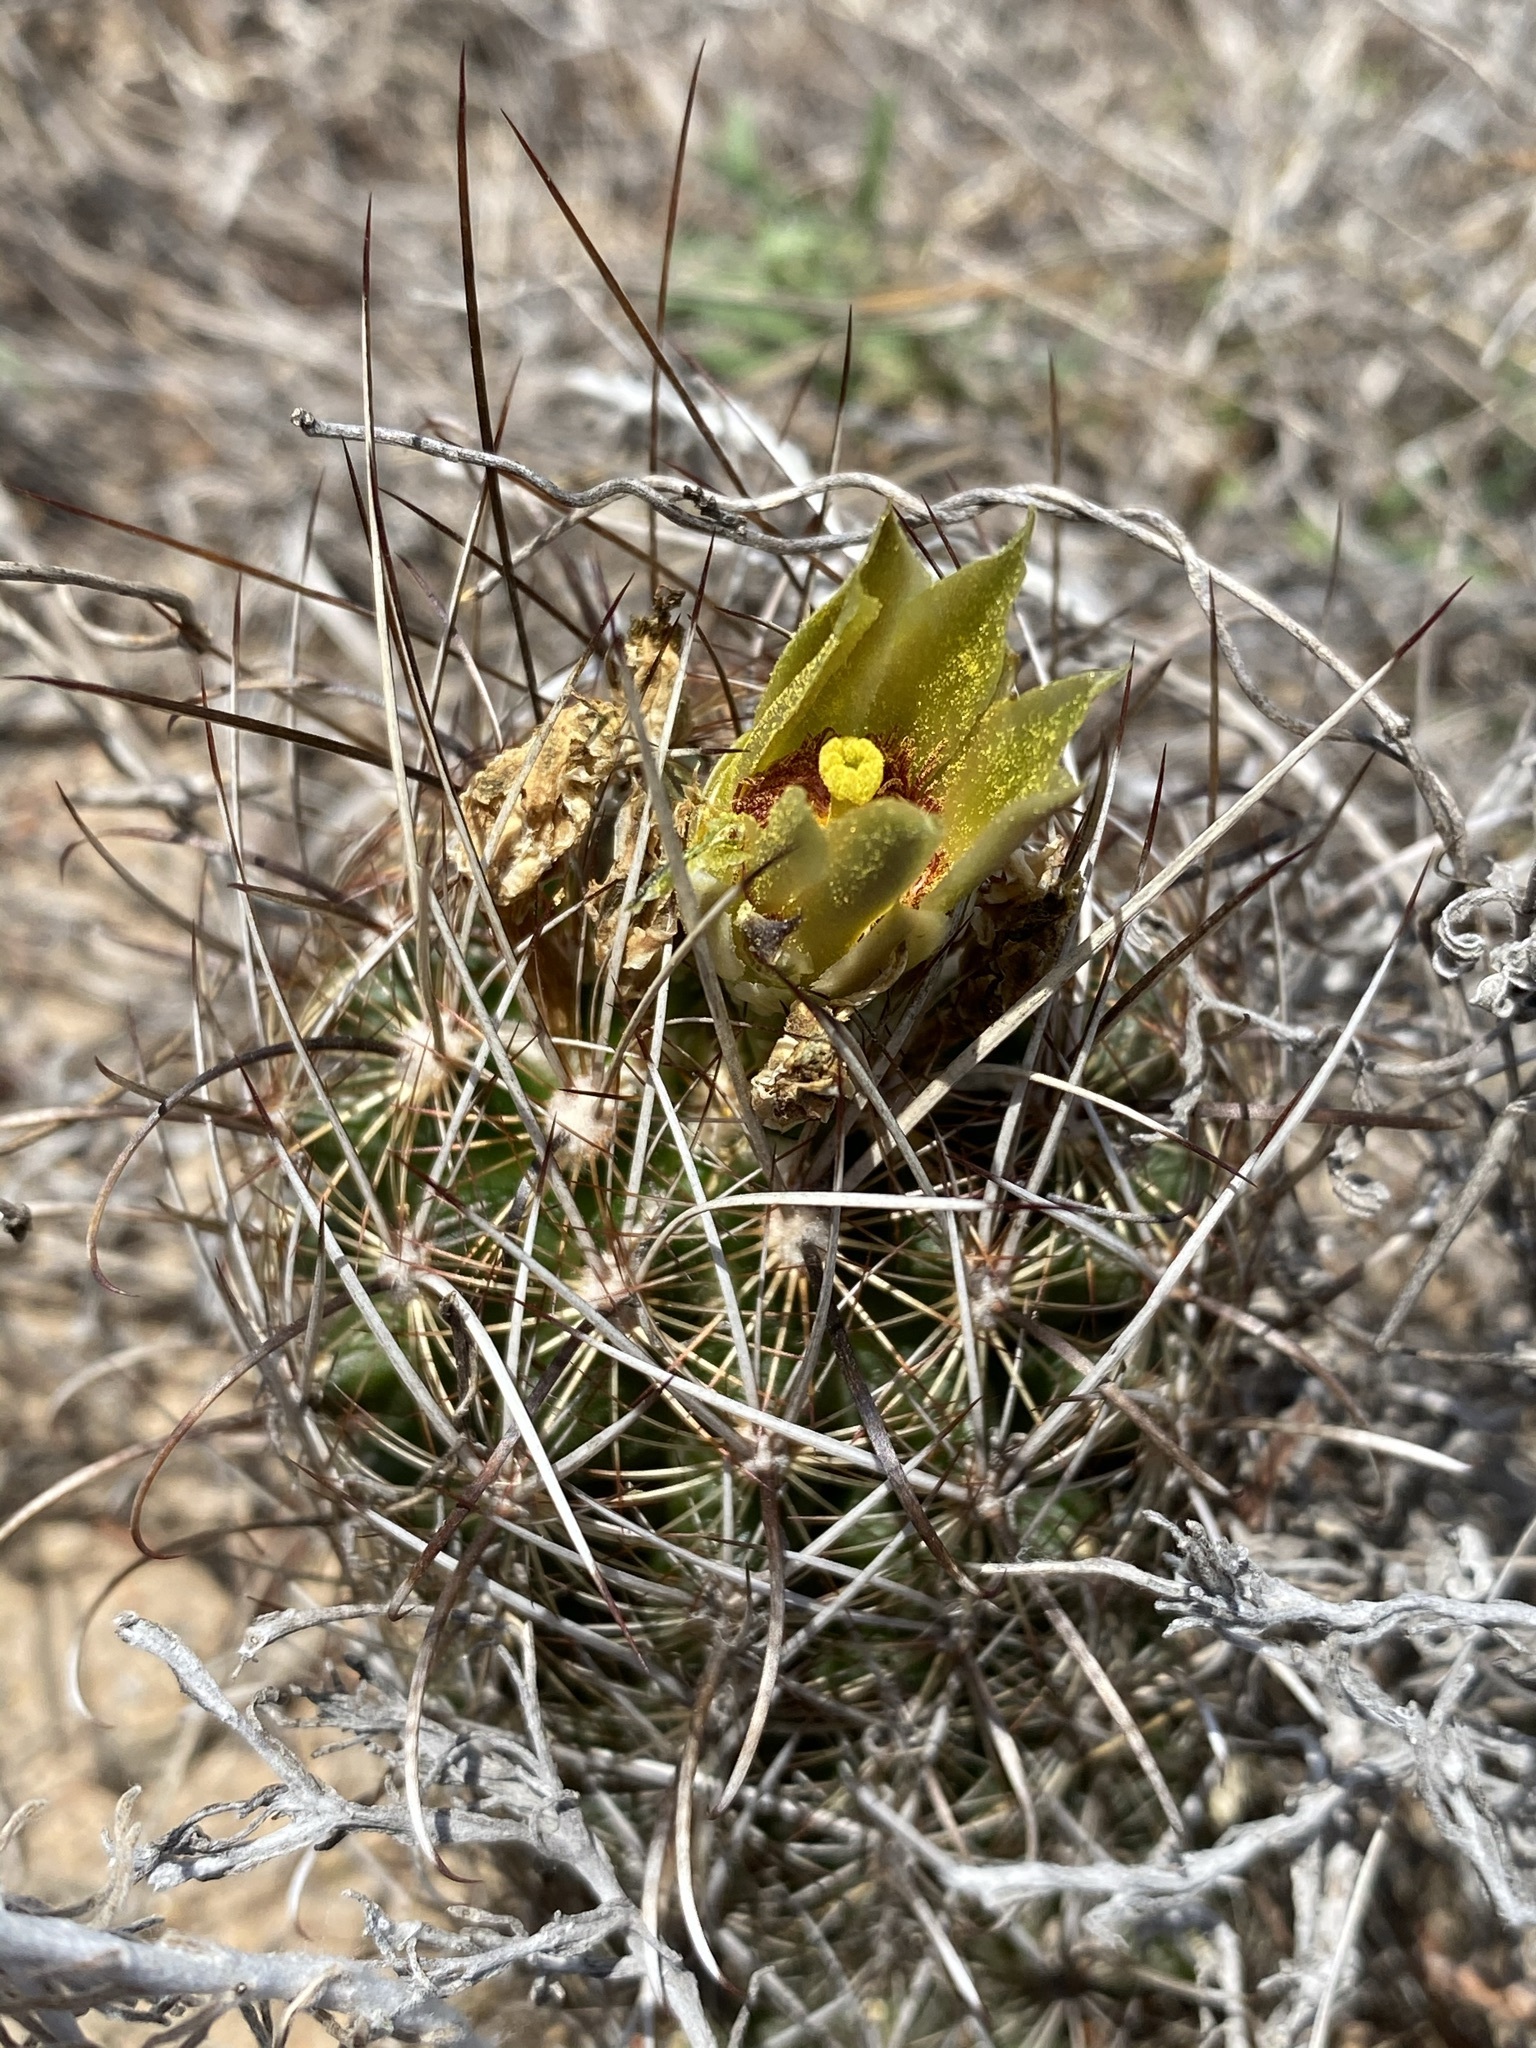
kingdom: Plantae
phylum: Tracheophyta
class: Magnoliopsida
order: Caryophyllales
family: Cactaceae
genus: Sclerocactus
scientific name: Sclerocactus scheerii
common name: Scheer's fish-hook cactus
